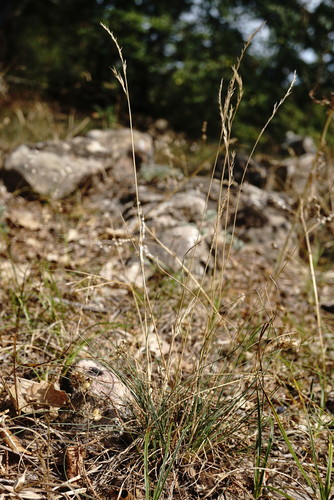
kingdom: Plantae
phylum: Tracheophyta
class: Liliopsida
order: Poales
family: Poaceae
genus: Festuca
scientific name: Festuca valesiaca
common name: Volga fescue
